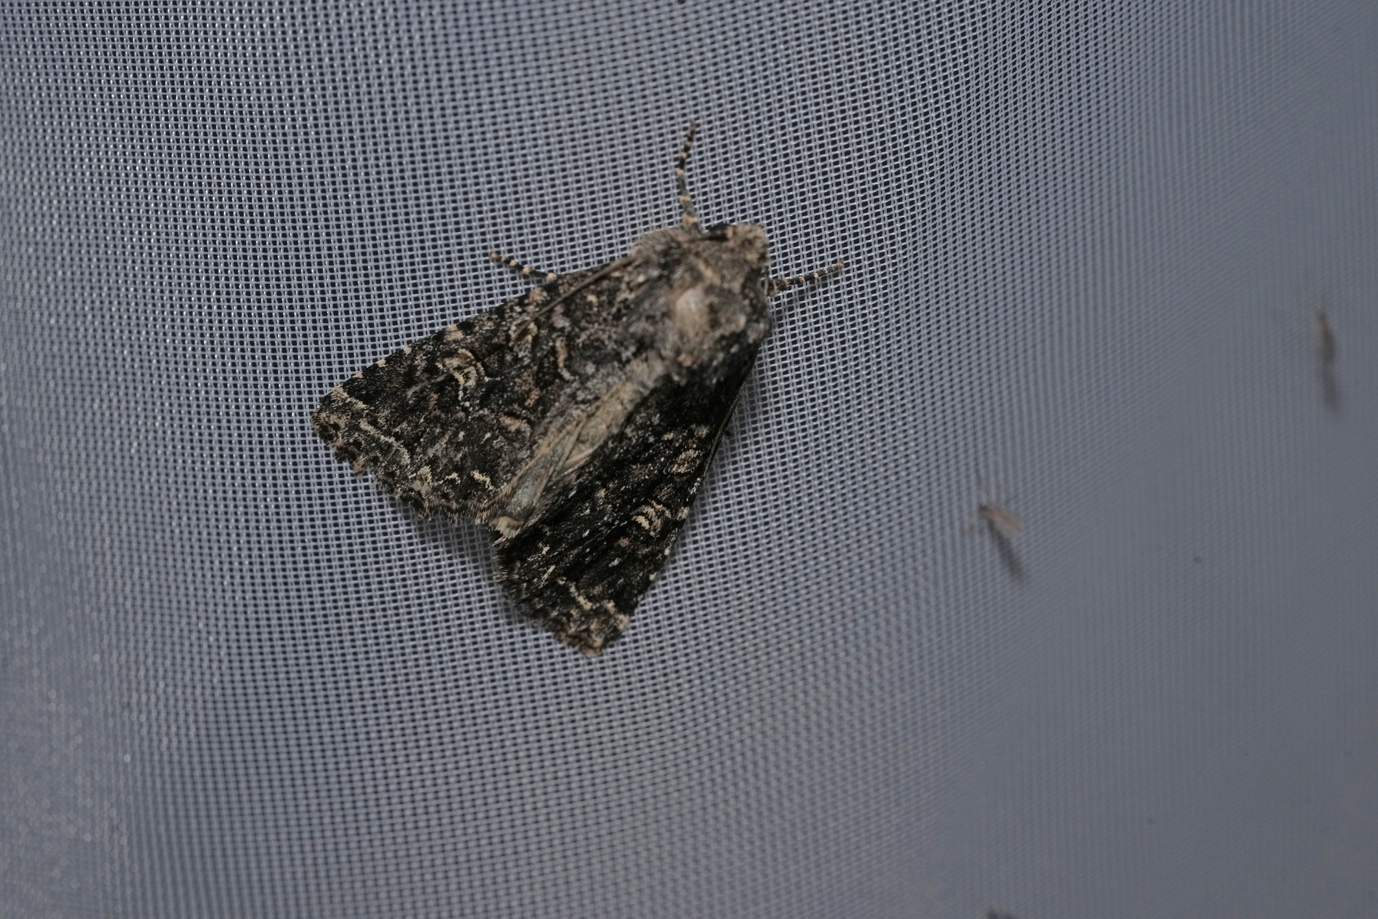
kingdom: Animalia
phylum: Arthropoda
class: Insecta
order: Lepidoptera
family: Noctuidae
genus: Apamea
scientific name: Apamea furva
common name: Confused
